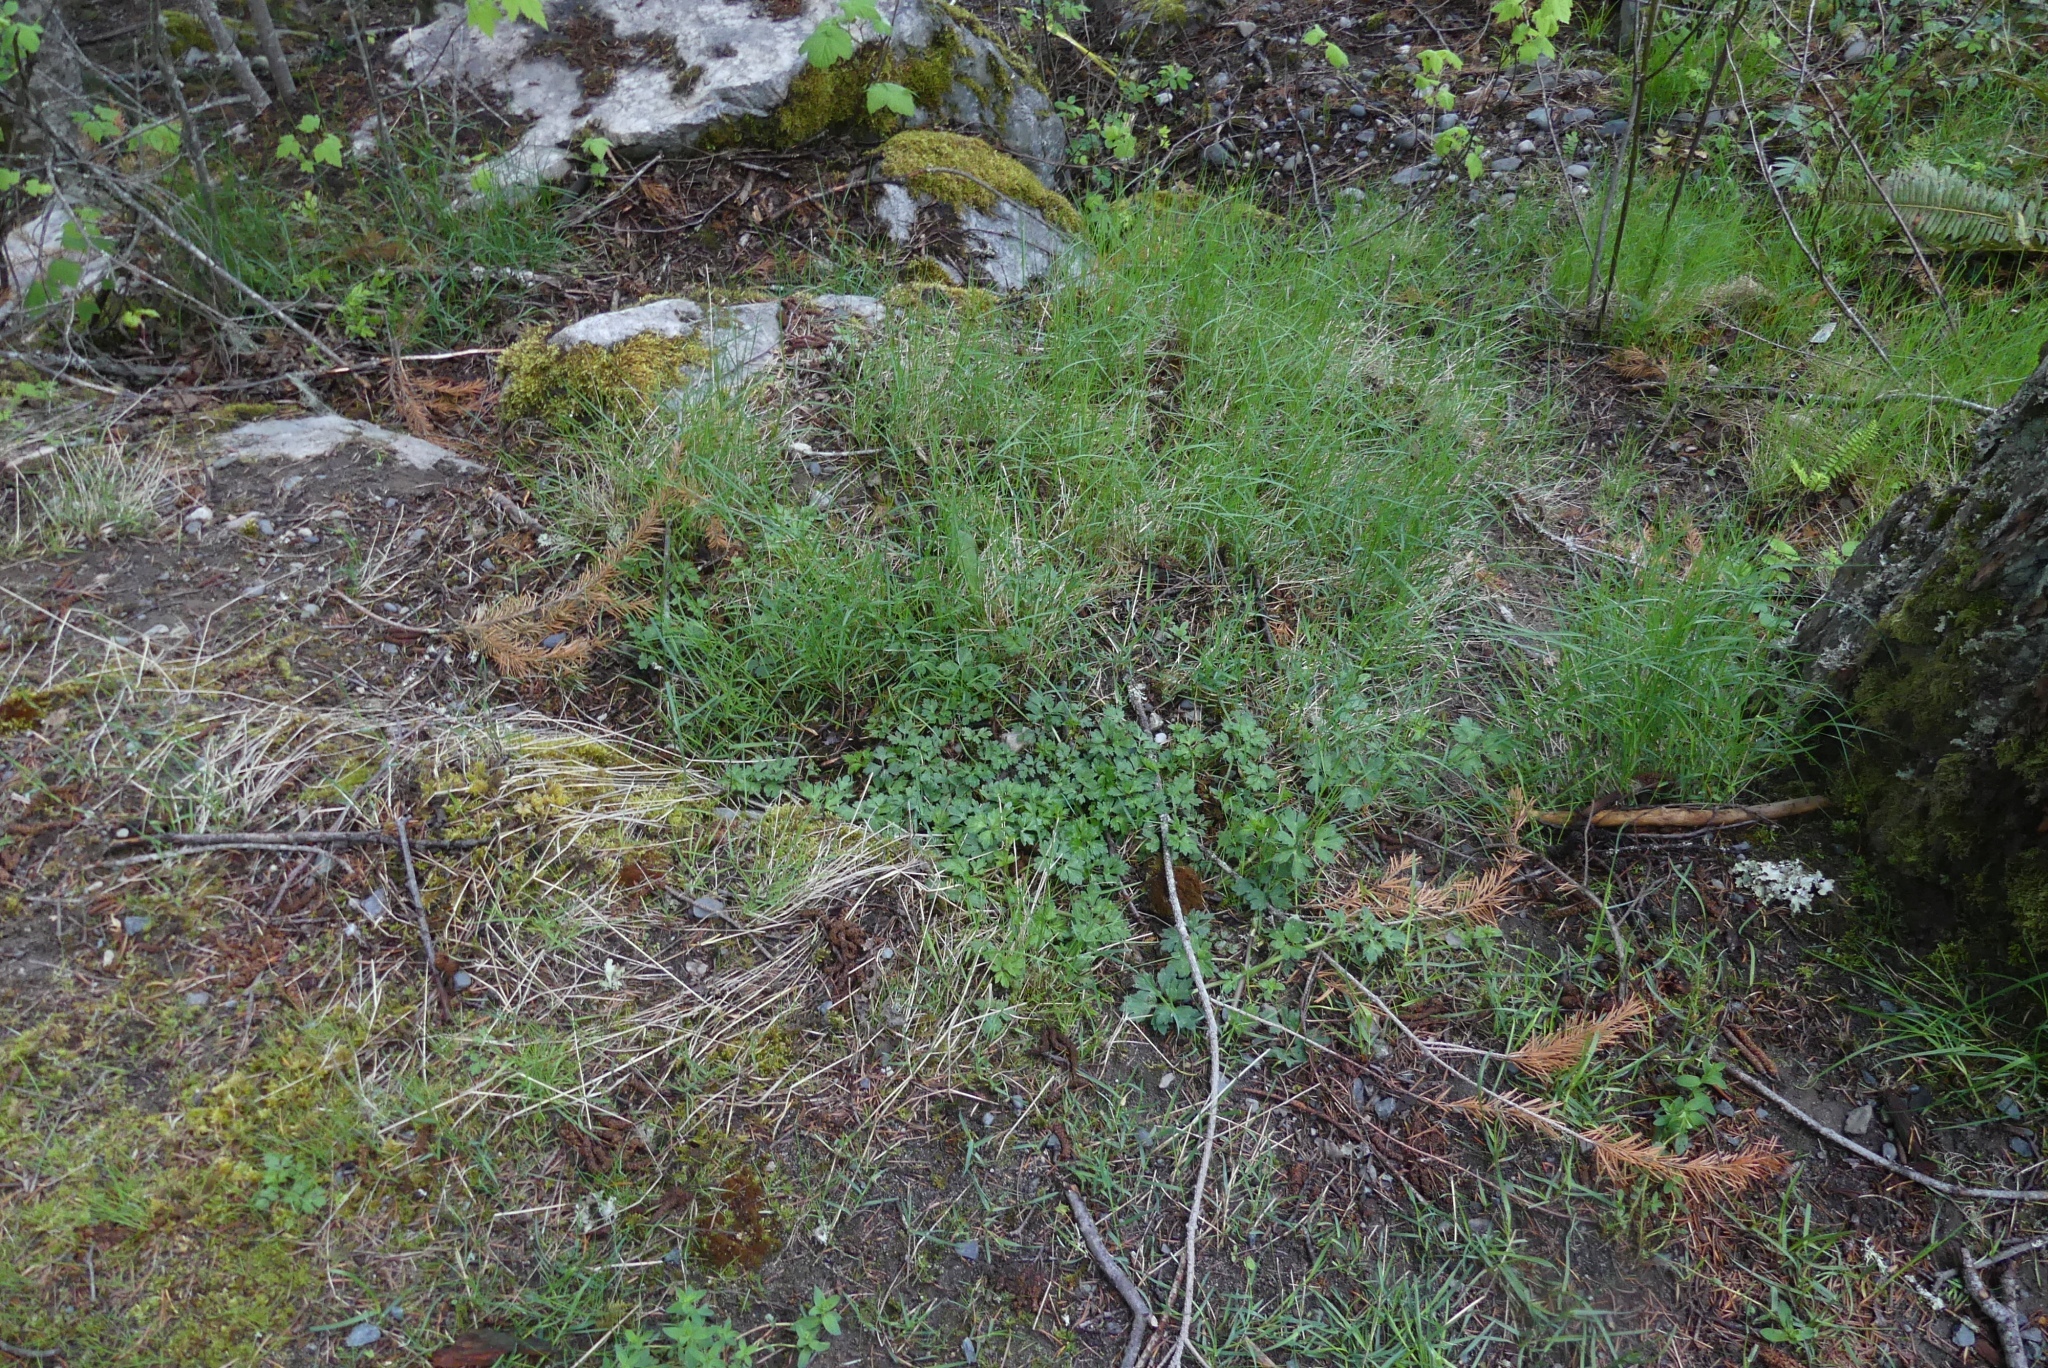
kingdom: Plantae
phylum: Tracheophyta
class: Magnoliopsida
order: Ranunculales
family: Ranunculaceae
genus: Ranunculus
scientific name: Ranunculus repens
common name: Creeping buttercup
